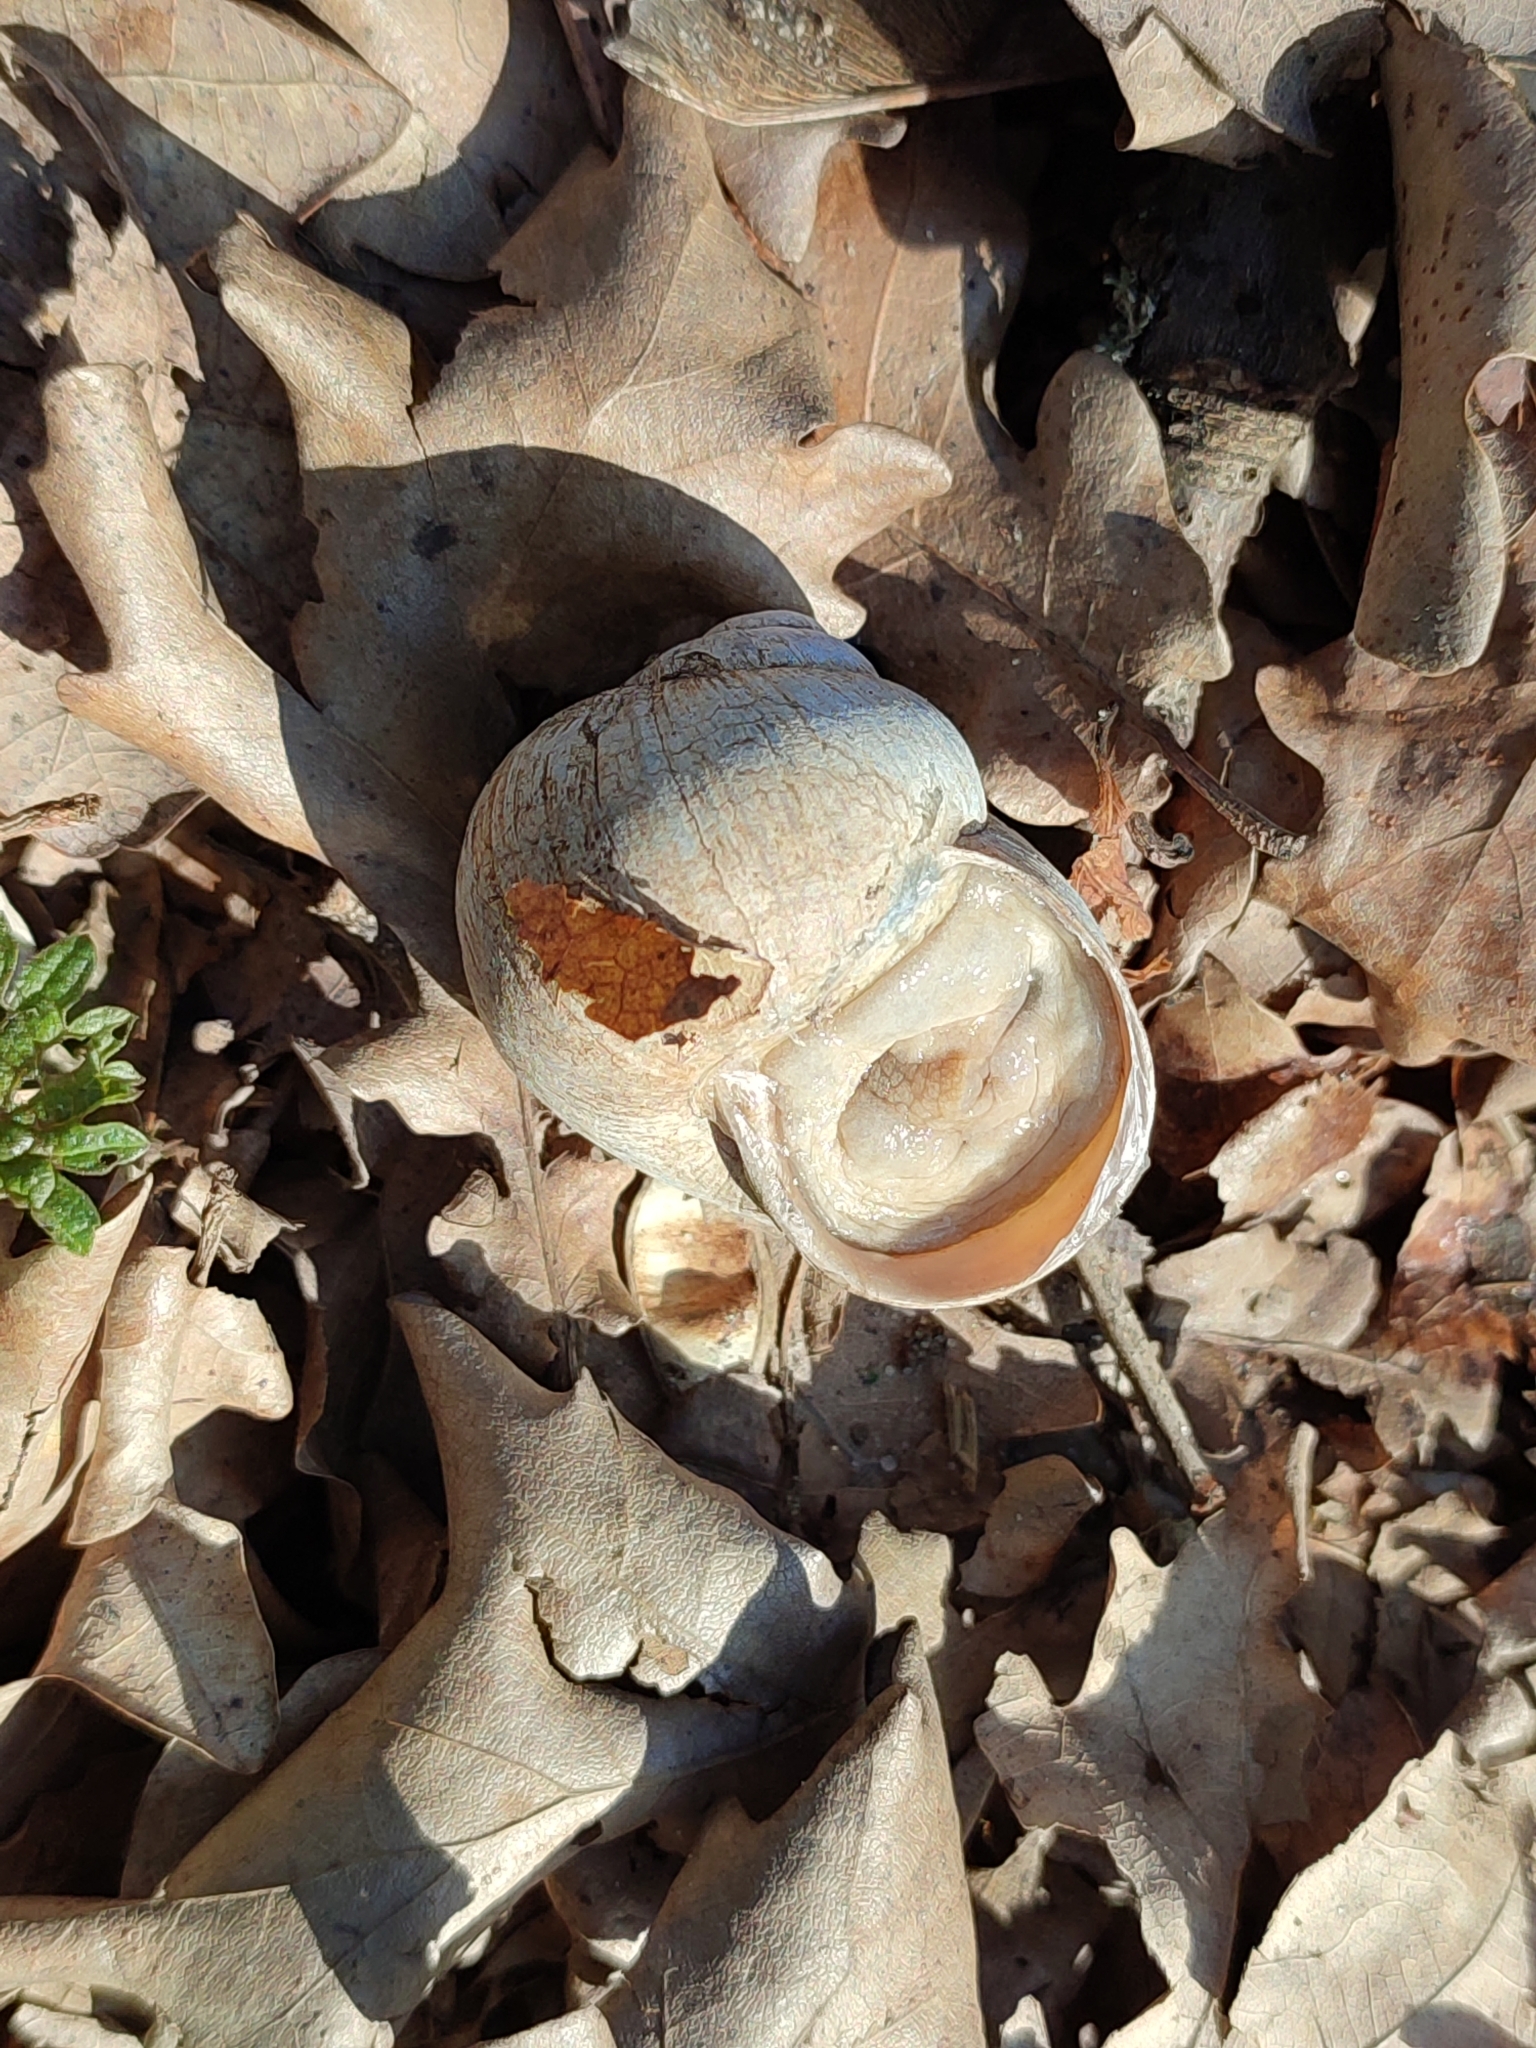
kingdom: Animalia
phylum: Mollusca
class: Gastropoda
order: Stylommatophora
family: Helicidae
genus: Helix
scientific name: Helix pomatia
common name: Roman snail
